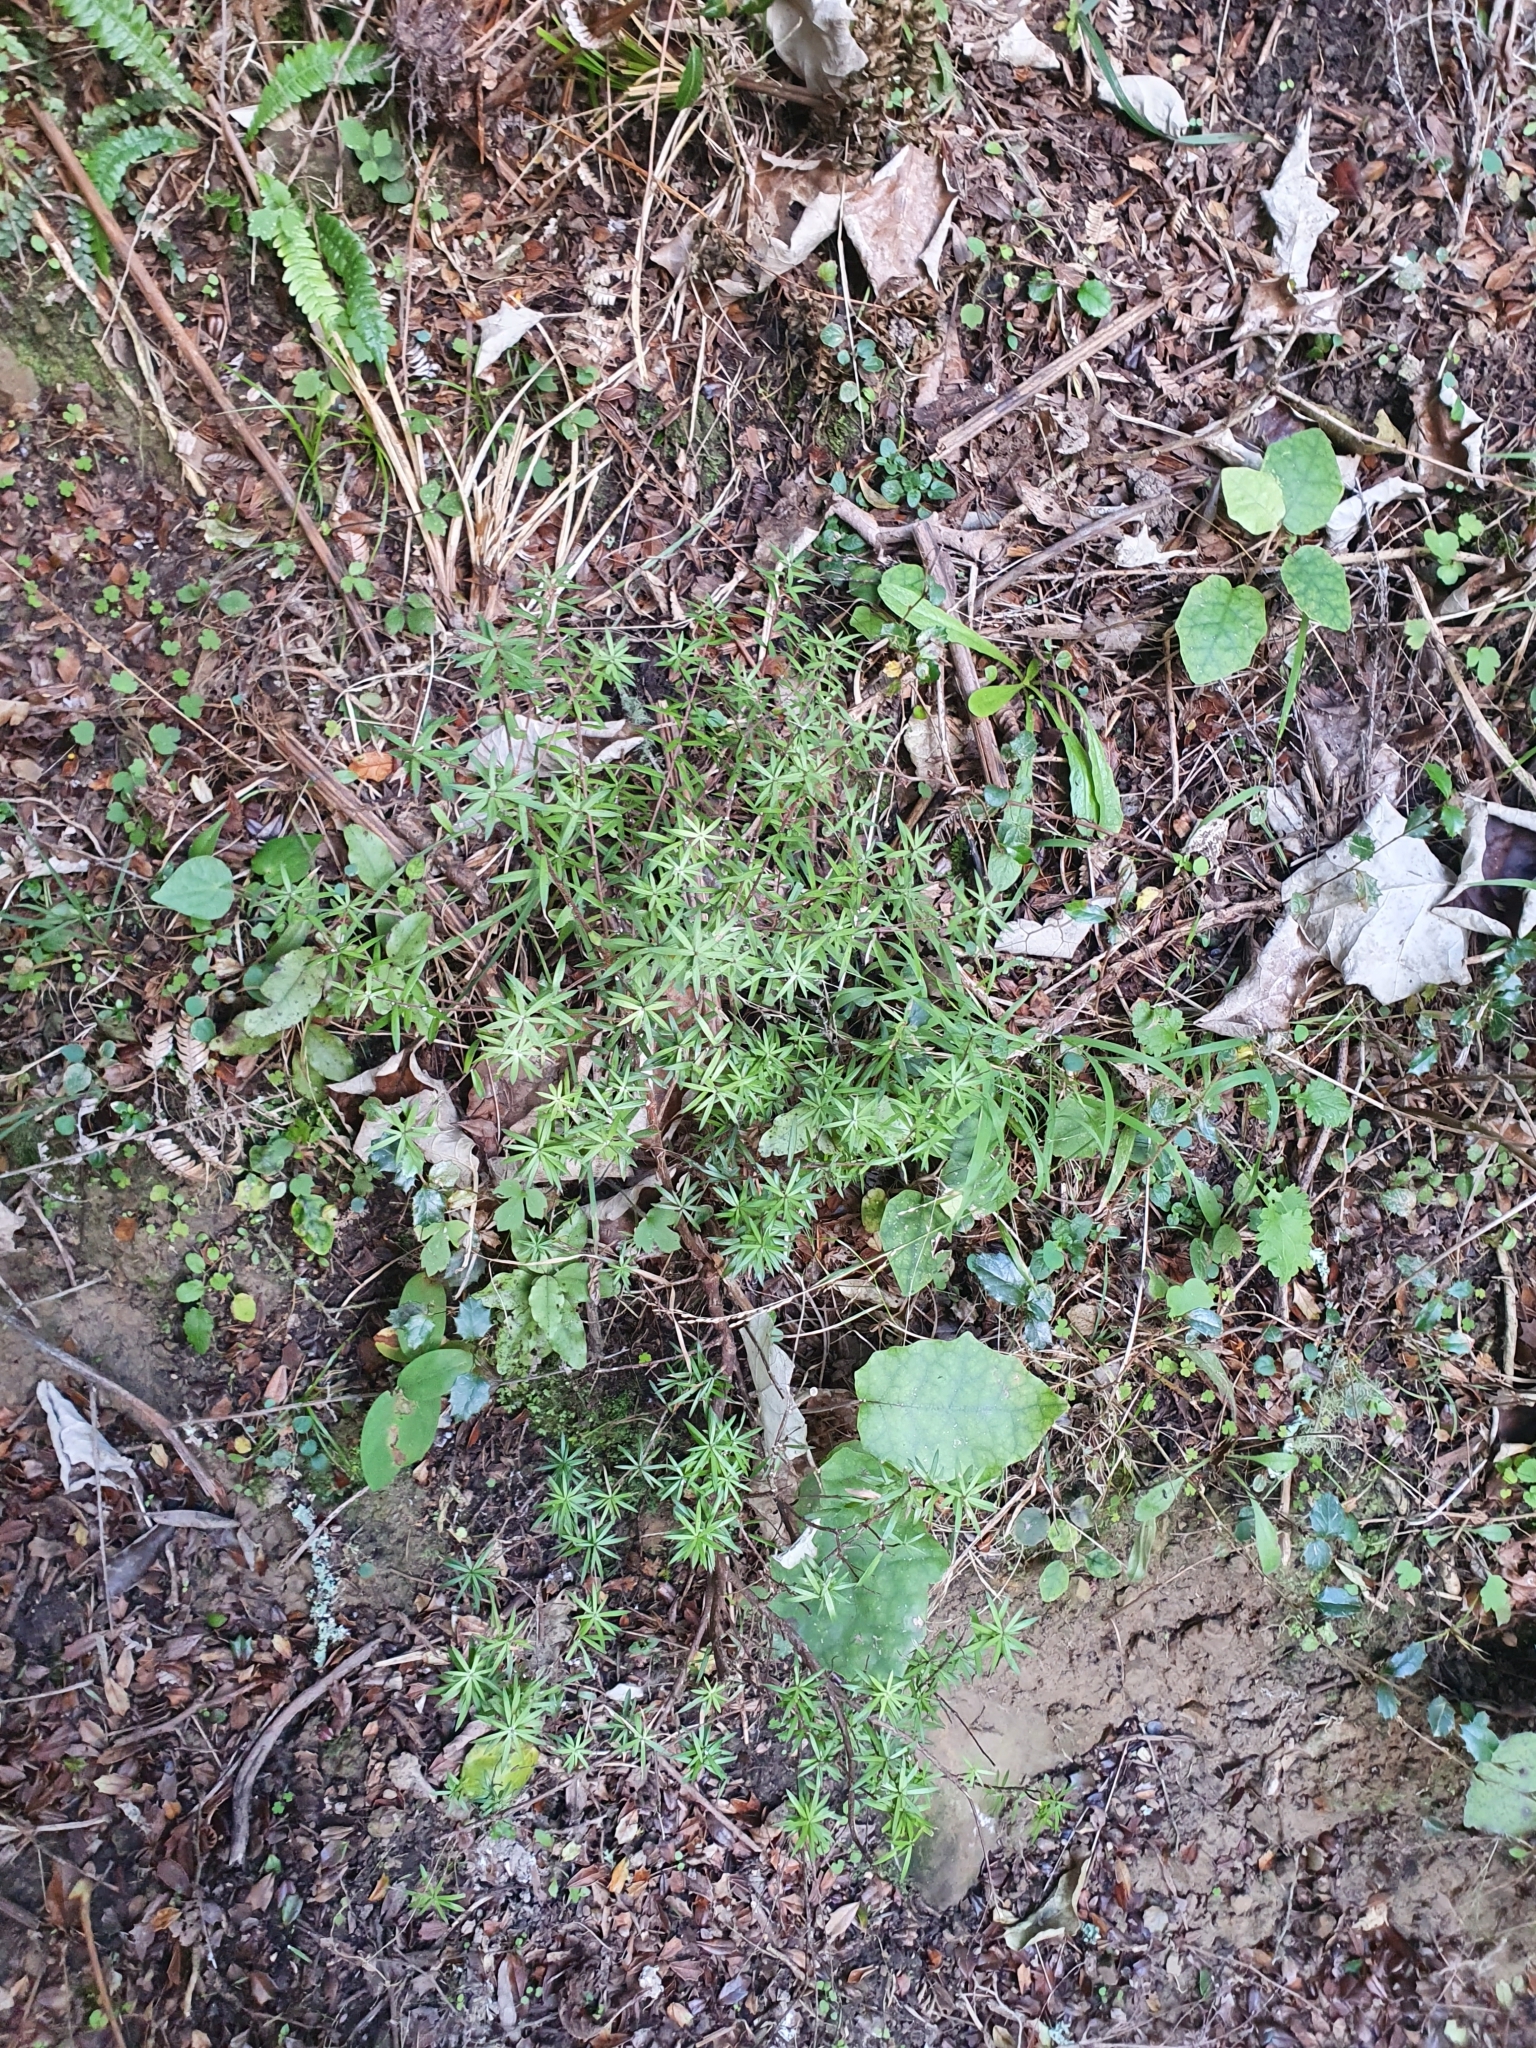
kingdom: Plantae
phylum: Tracheophyta
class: Magnoliopsida
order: Ericales
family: Ericaceae
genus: Leucopogon
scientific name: Leucopogon fasciculatus
